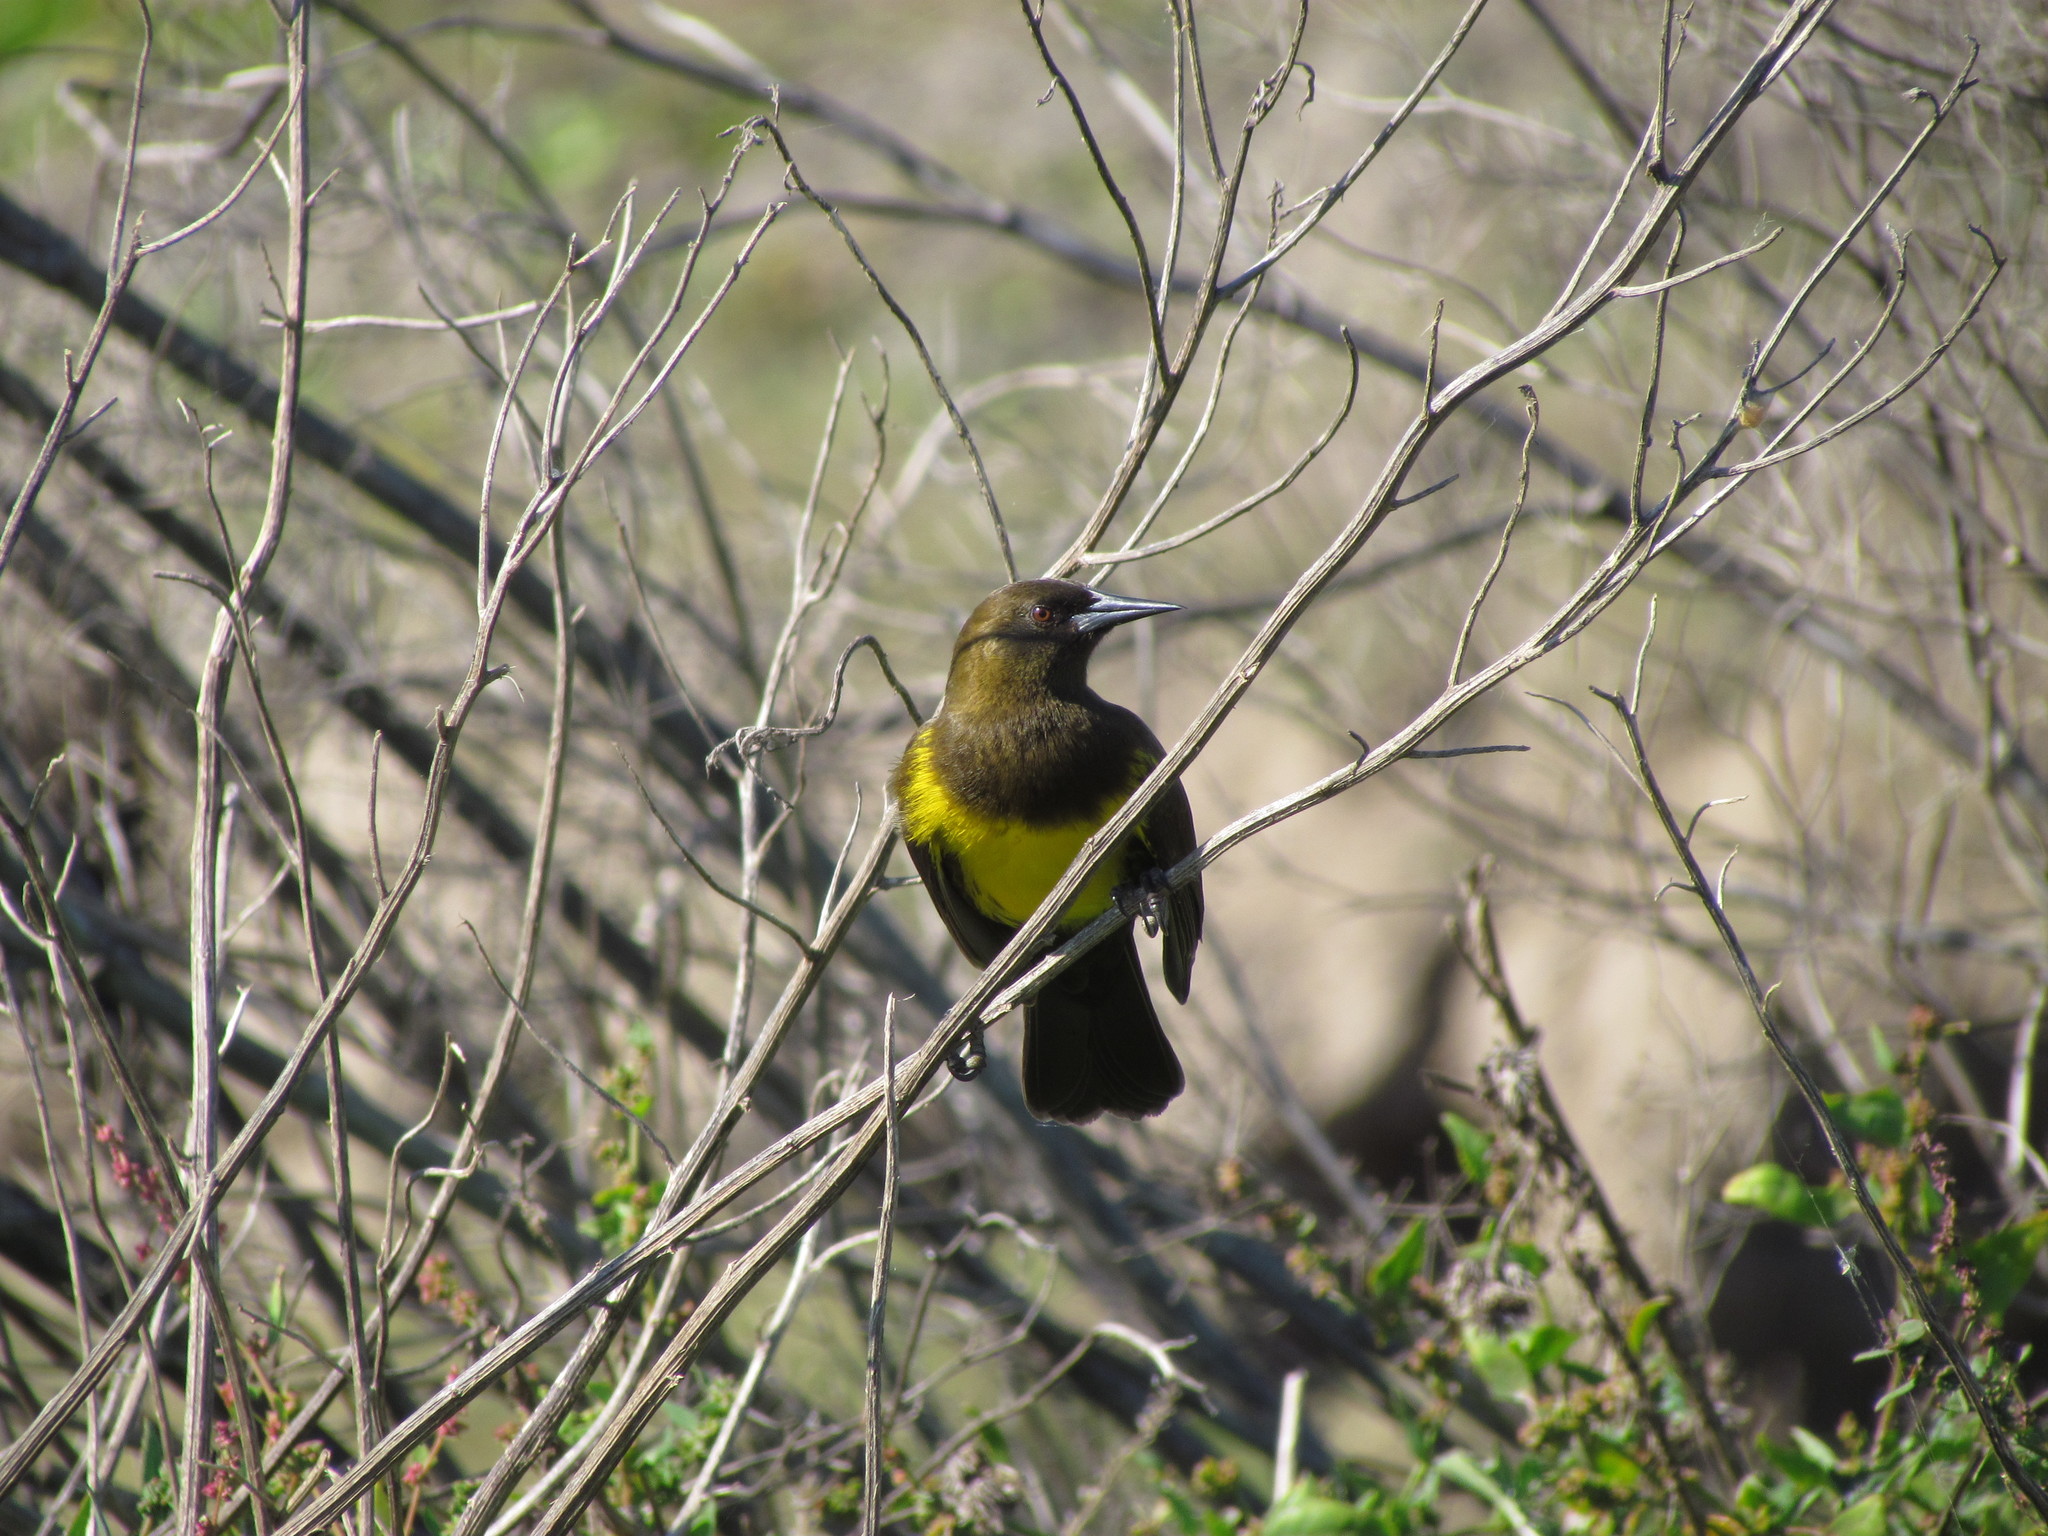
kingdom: Animalia
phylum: Chordata
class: Aves
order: Passeriformes
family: Icteridae
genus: Pseudoleistes
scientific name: Pseudoleistes virescens
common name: Brown-and-yellow marshbird
